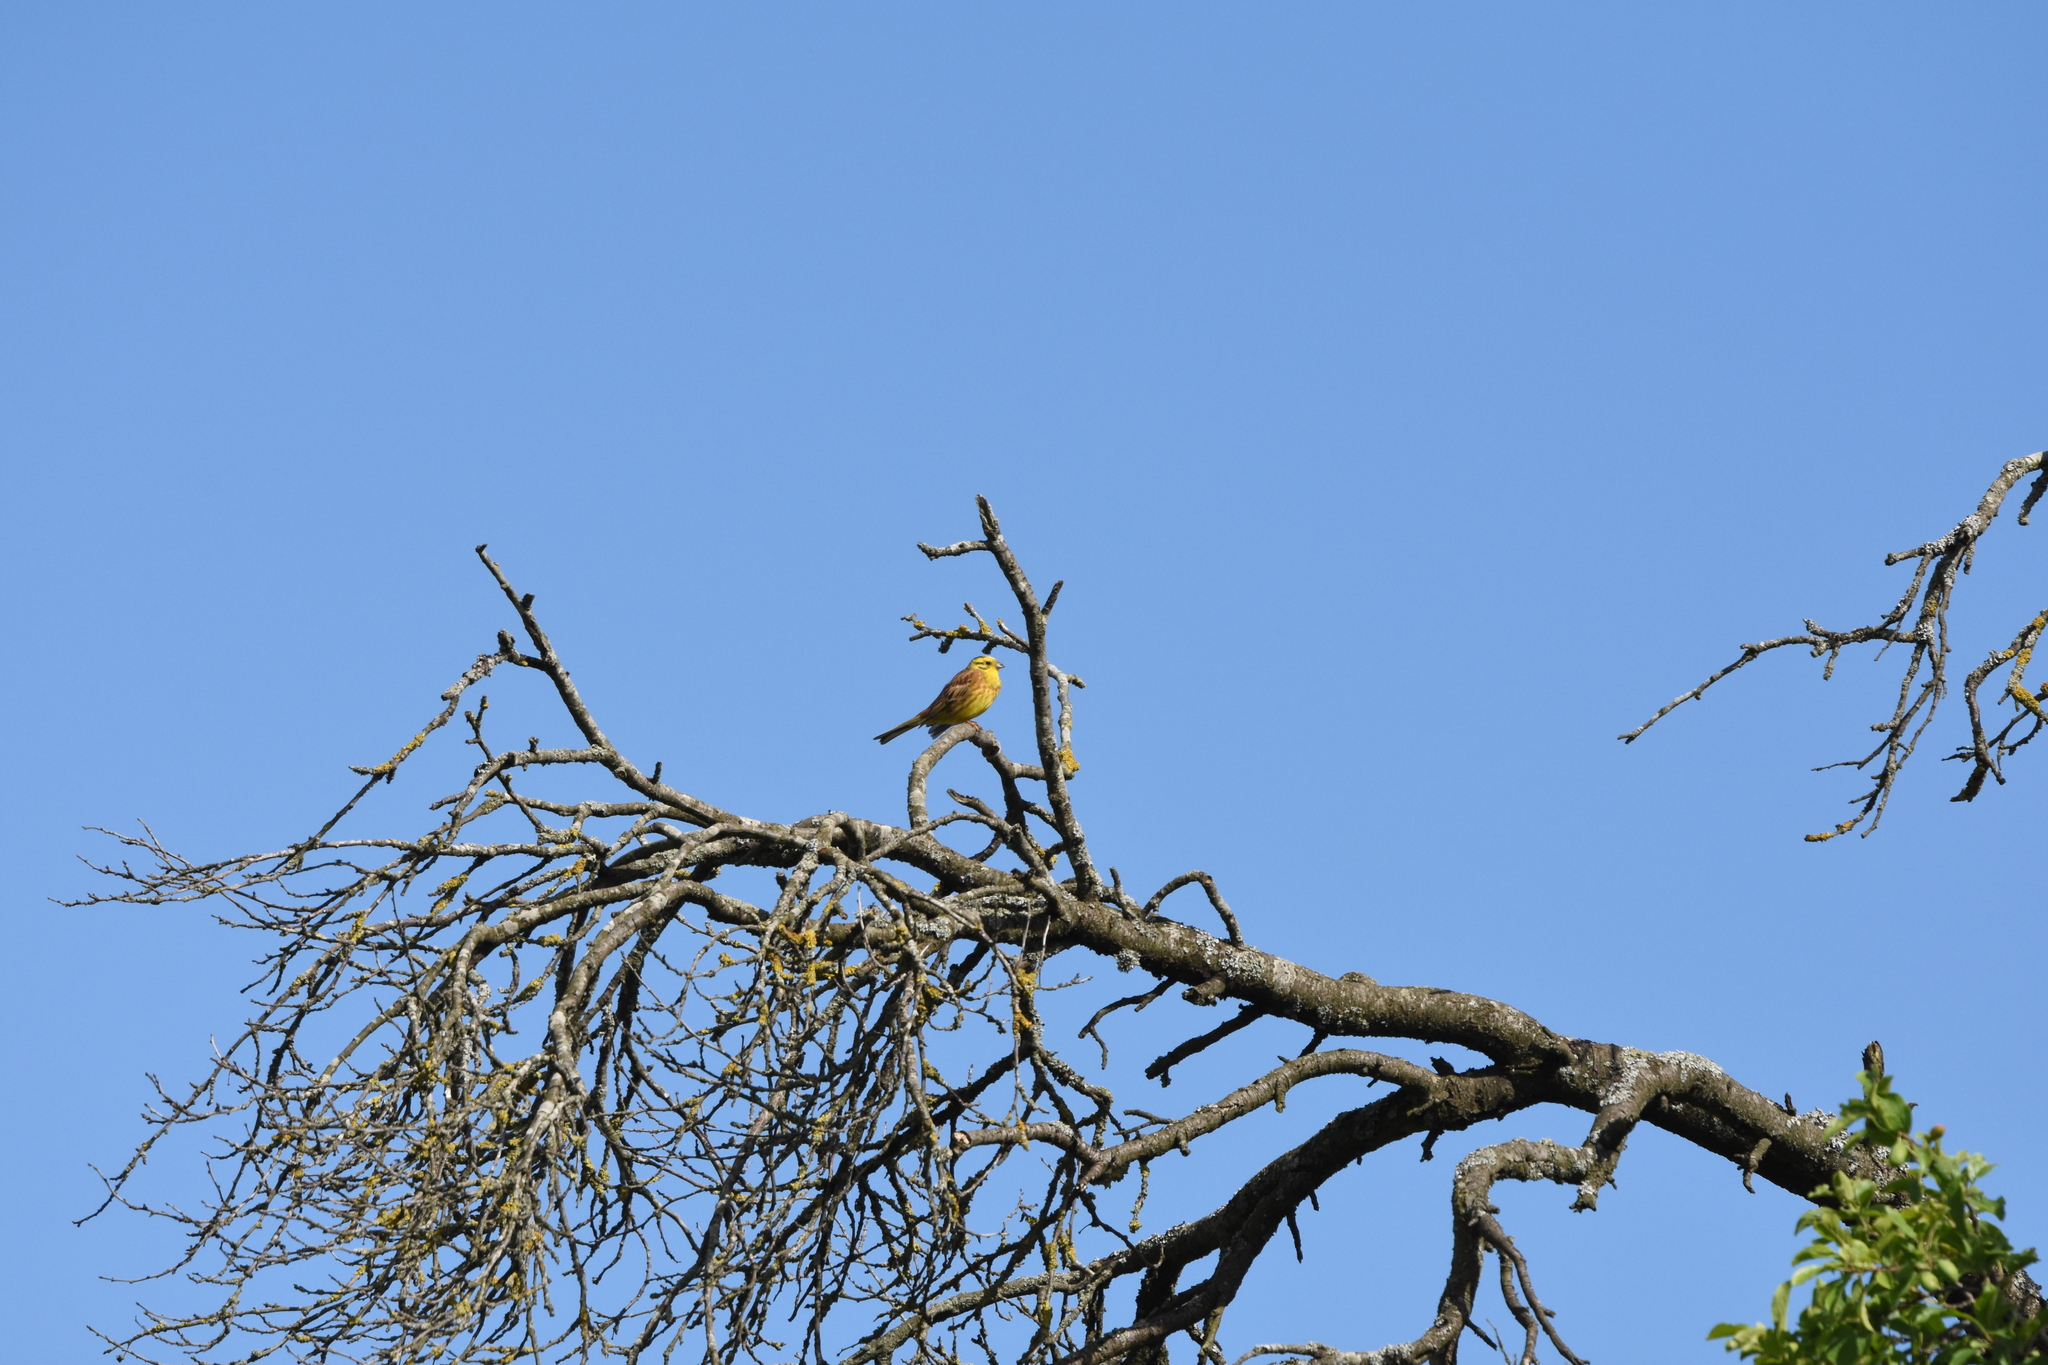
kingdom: Animalia
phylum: Chordata
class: Aves
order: Passeriformes
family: Emberizidae
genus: Emberiza
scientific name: Emberiza citrinella
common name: Yellowhammer
